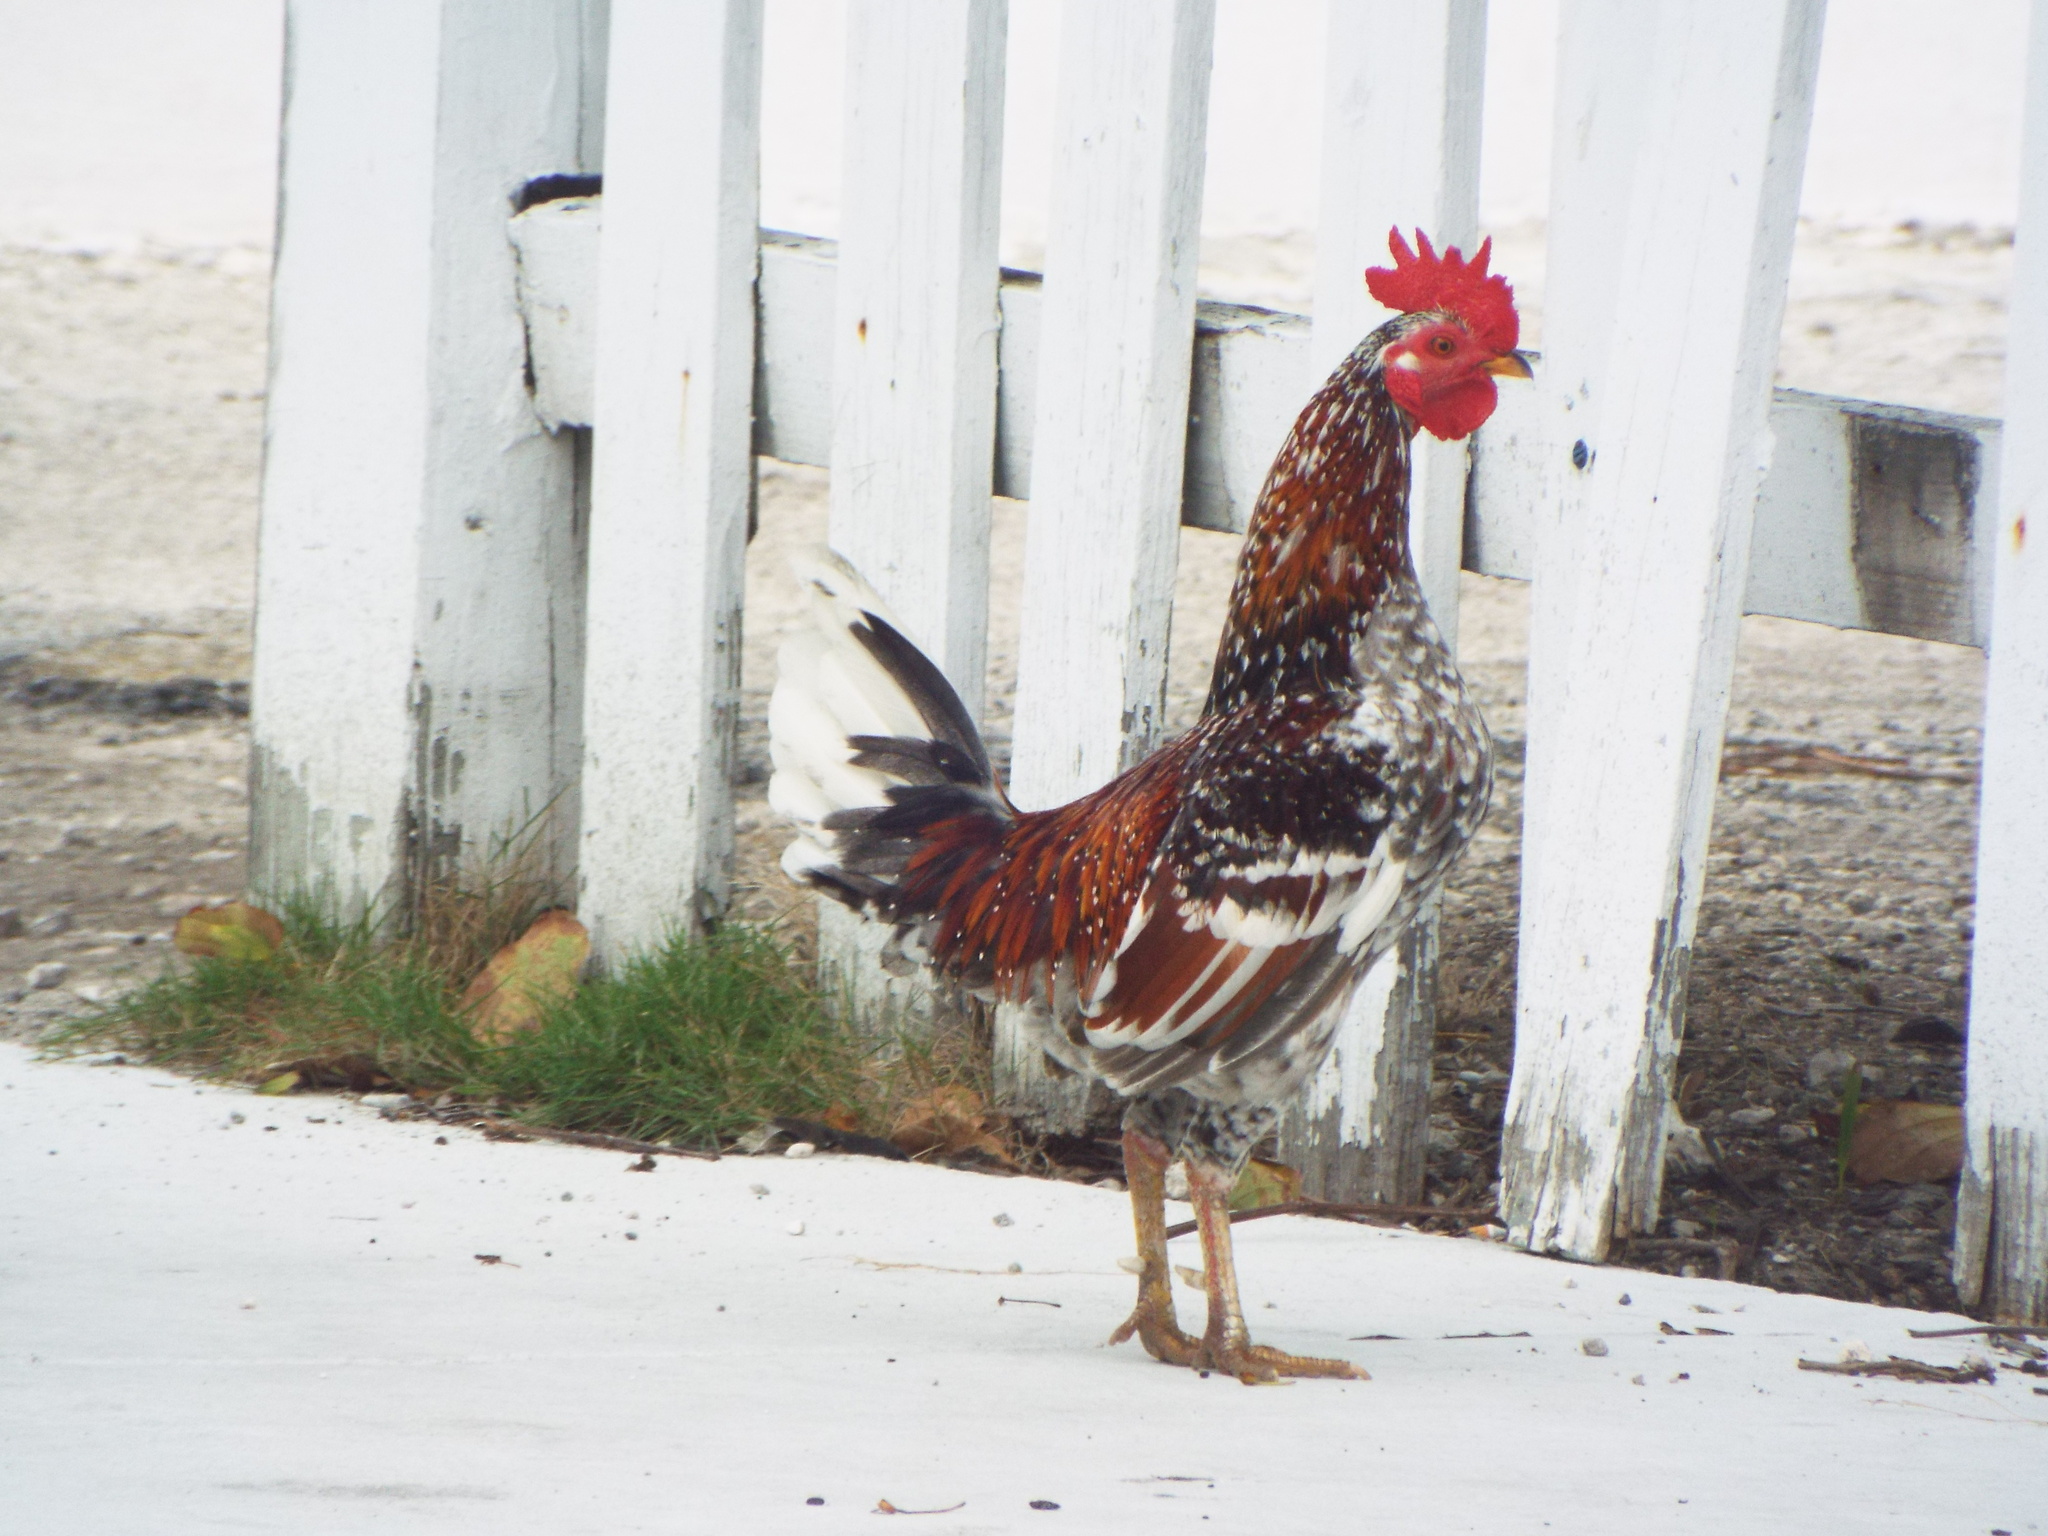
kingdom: Animalia
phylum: Chordata
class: Aves
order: Galliformes
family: Phasianidae
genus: Gallus
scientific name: Gallus gallus
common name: Red junglefowl
